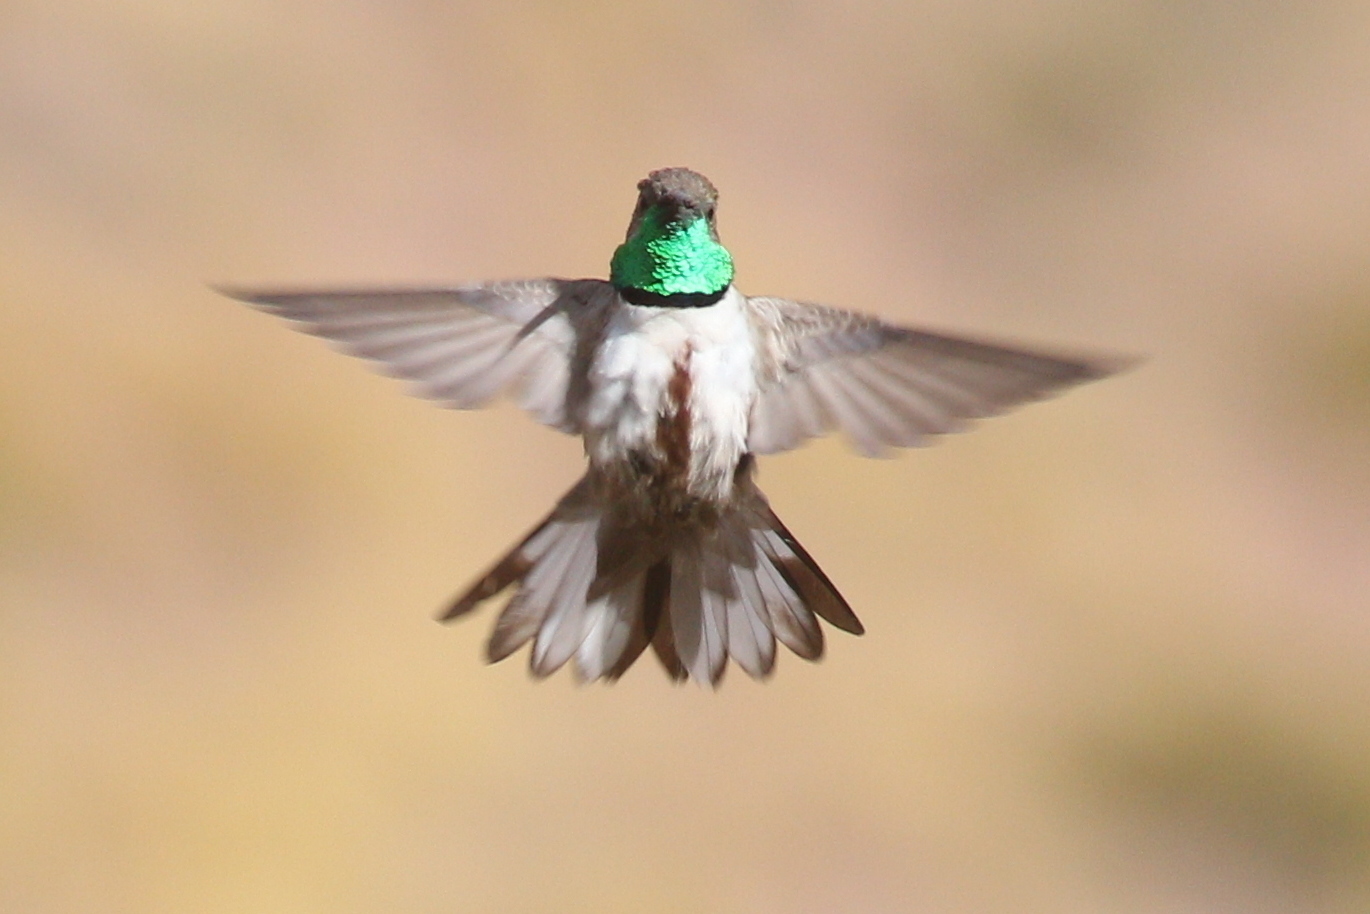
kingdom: Animalia
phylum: Chordata
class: Aves
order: Apodiformes
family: Trochilidae
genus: Oreotrochilus
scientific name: Oreotrochilus estella
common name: Andean hillstar
